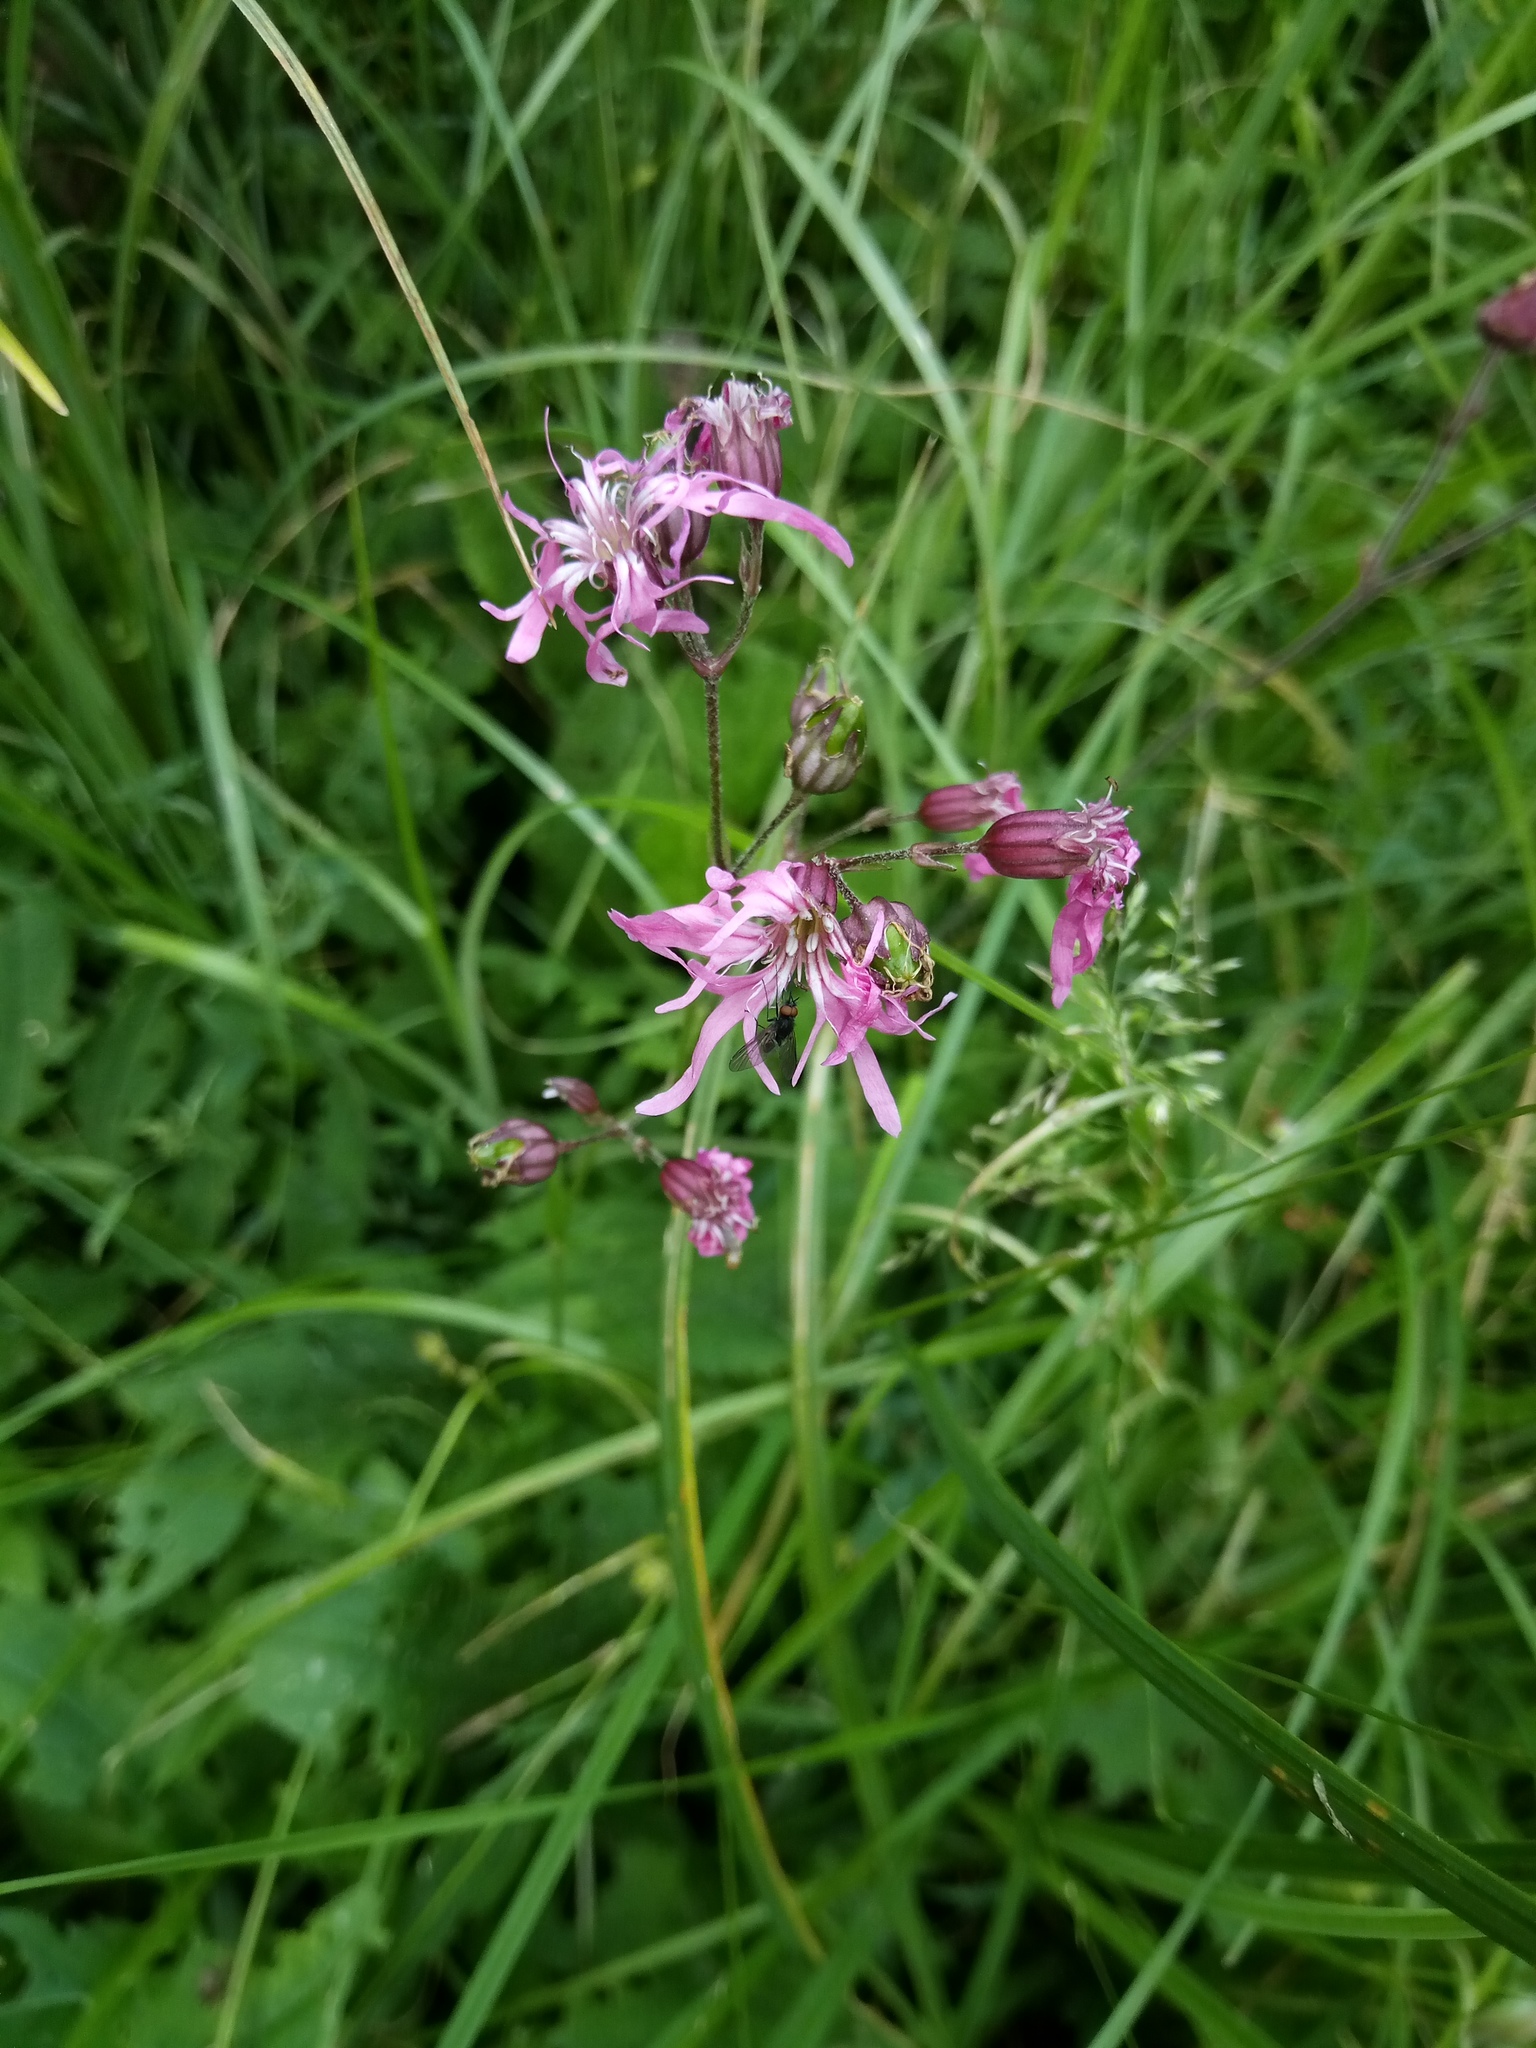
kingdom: Plantae
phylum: Tracheophyta
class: Magnoliopsida
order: Caryophyllales
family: Caryophyllaceae
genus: Silene
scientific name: Silene flos-cuculi
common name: Ragged-robin
